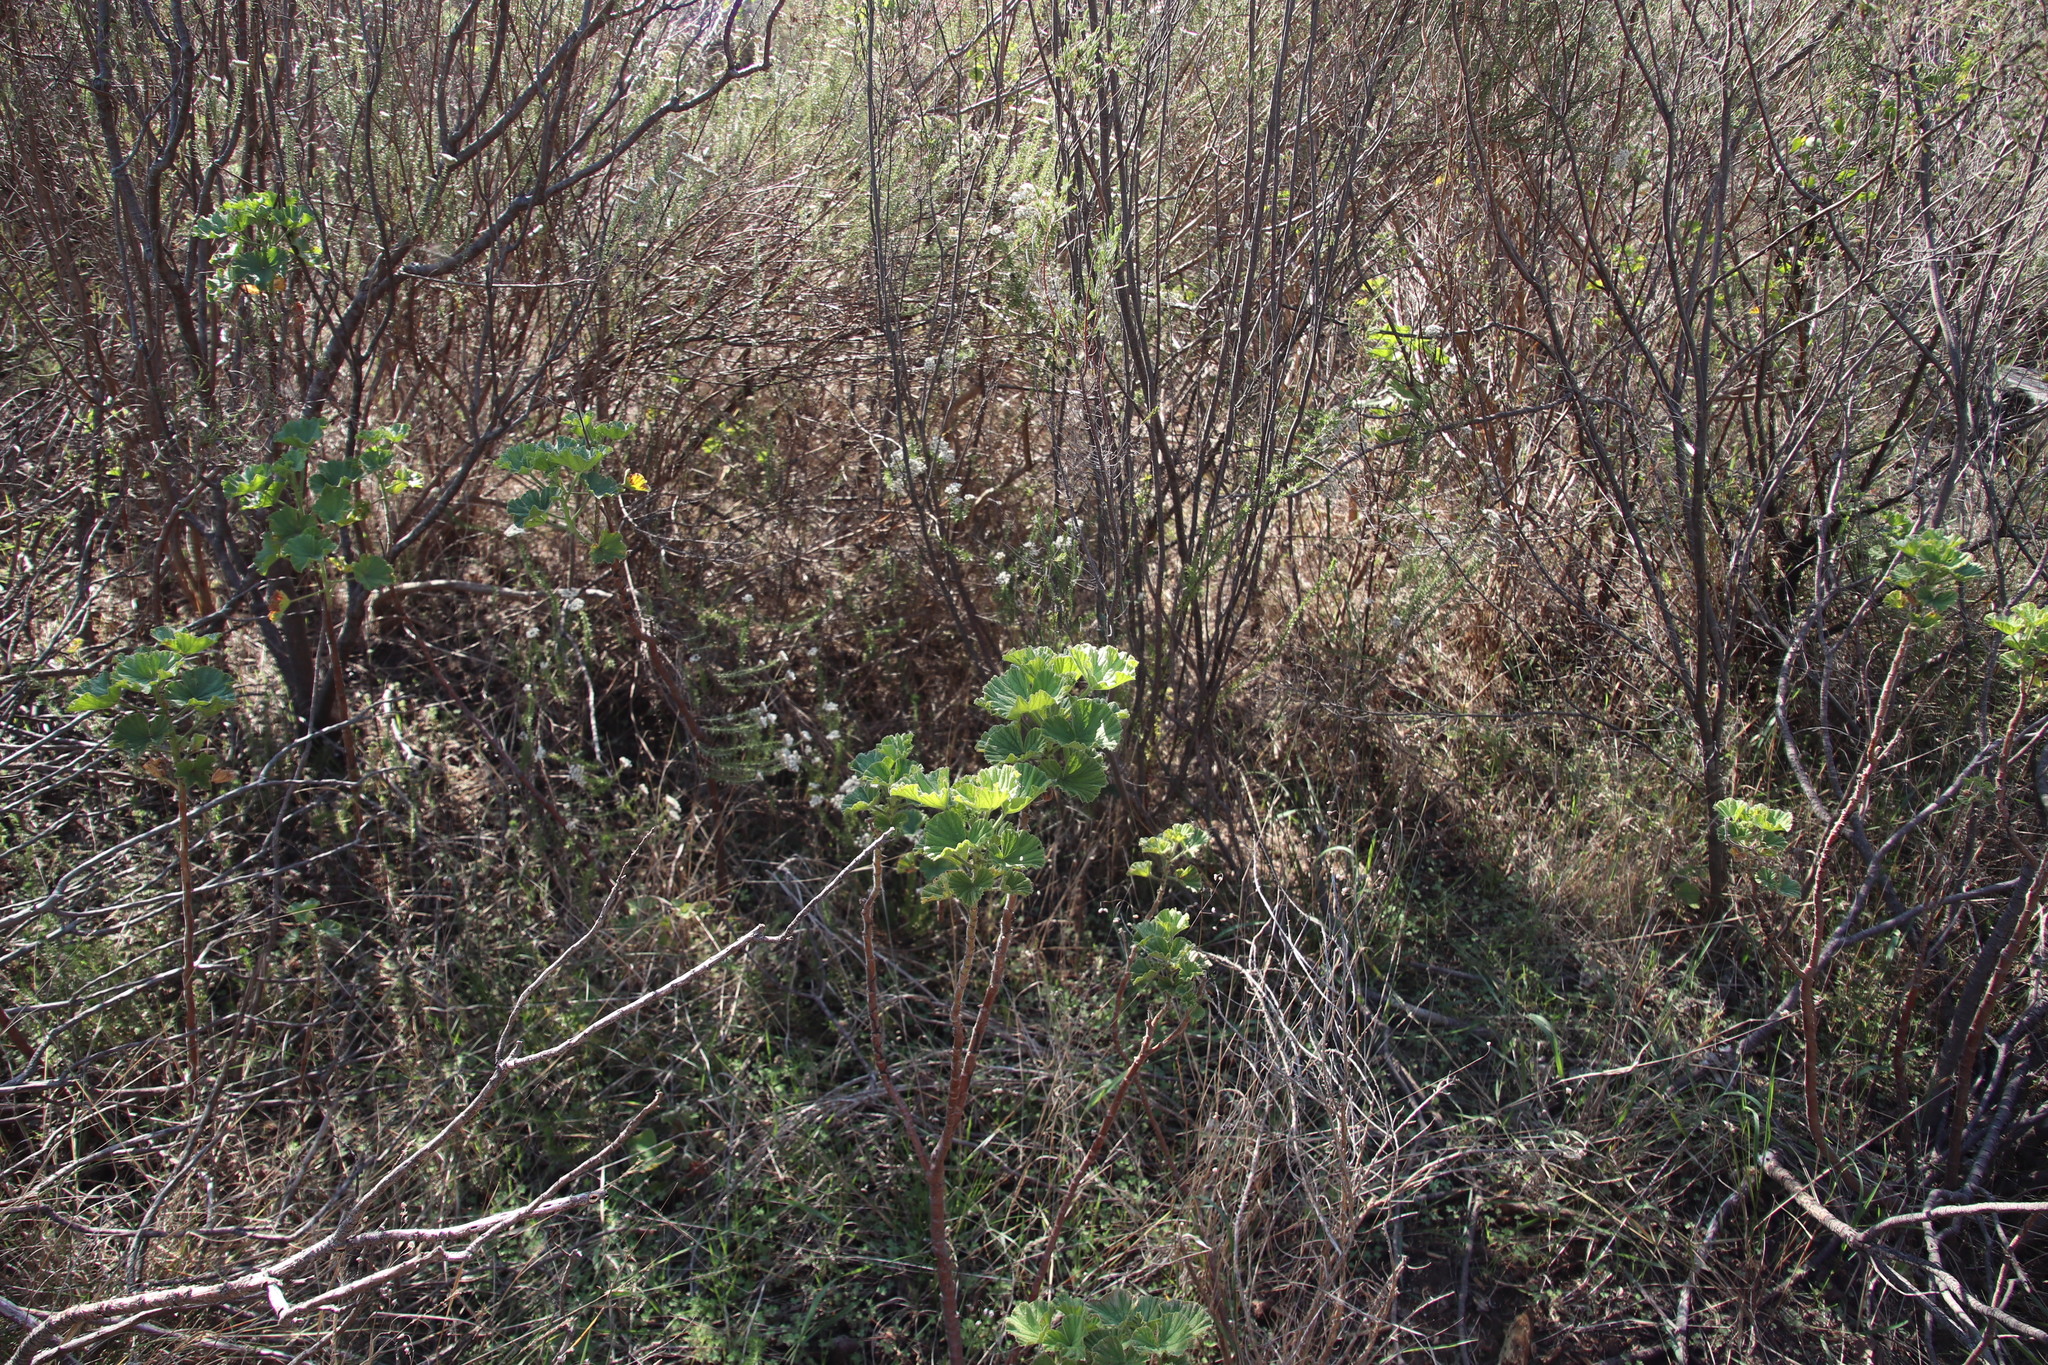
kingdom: Plantae
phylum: Tracheophyta
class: Magnoliopsida
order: Geraniales
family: Geraniaceae
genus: Pelargonium
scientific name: Pelargonium cucullatum
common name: Tree pelargonium
